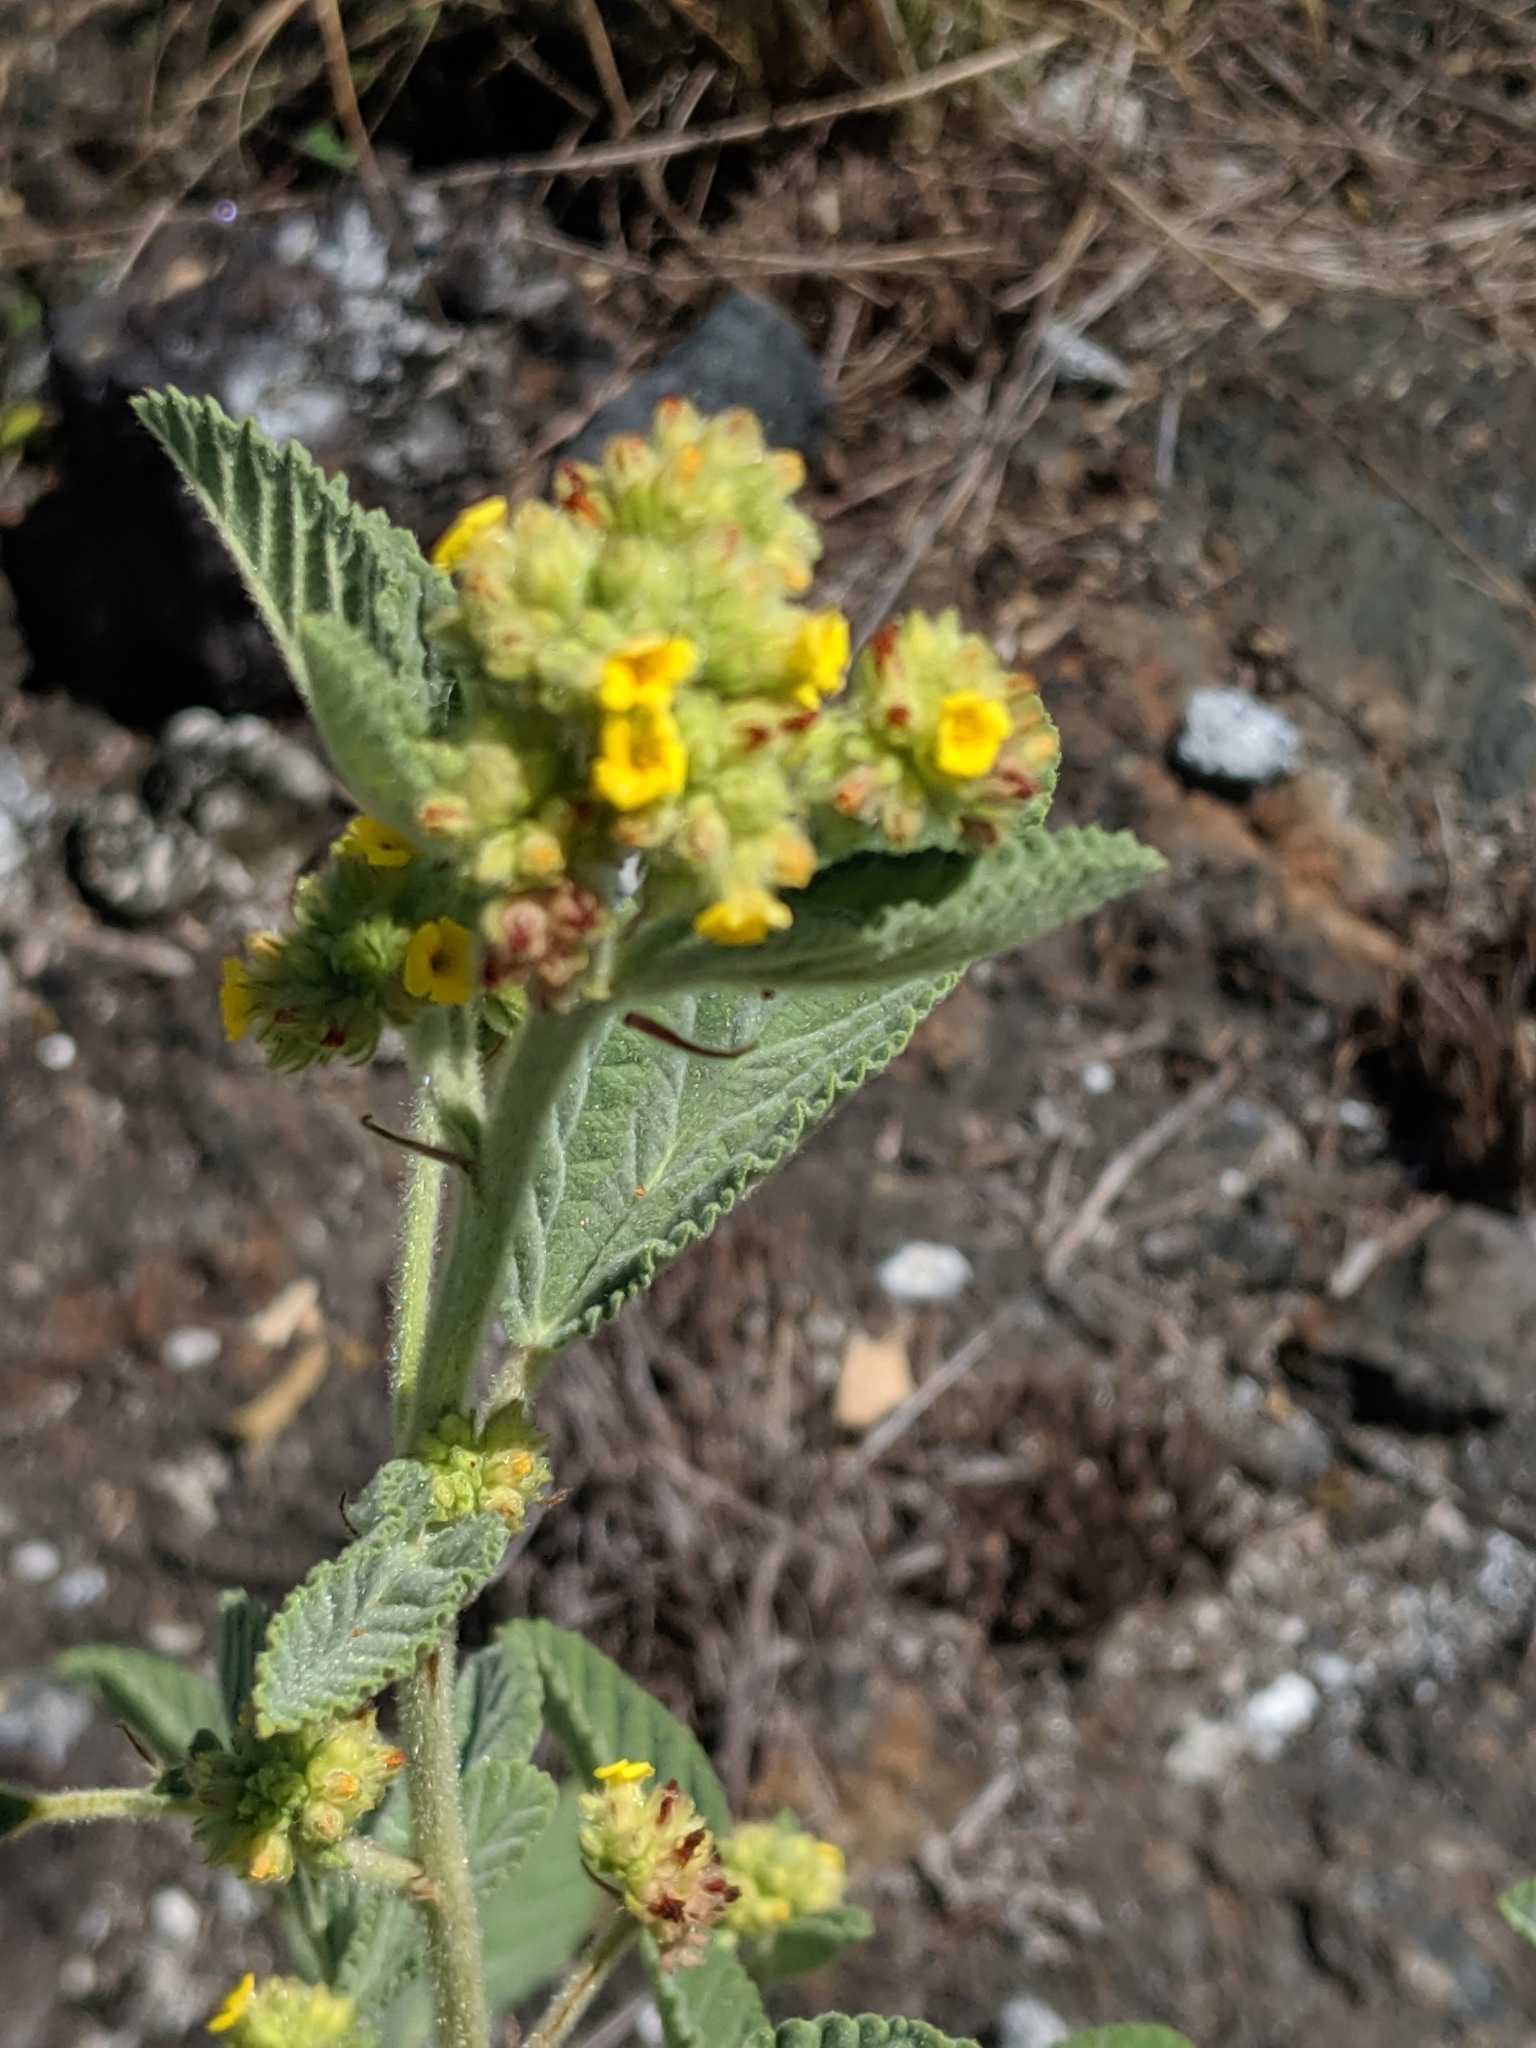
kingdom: Plantae
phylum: Tracheophyta
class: Magnoliopsida
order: Malvales
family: Malvaceae
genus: Waltheria
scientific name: Waltheria indica
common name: Leather-coat
